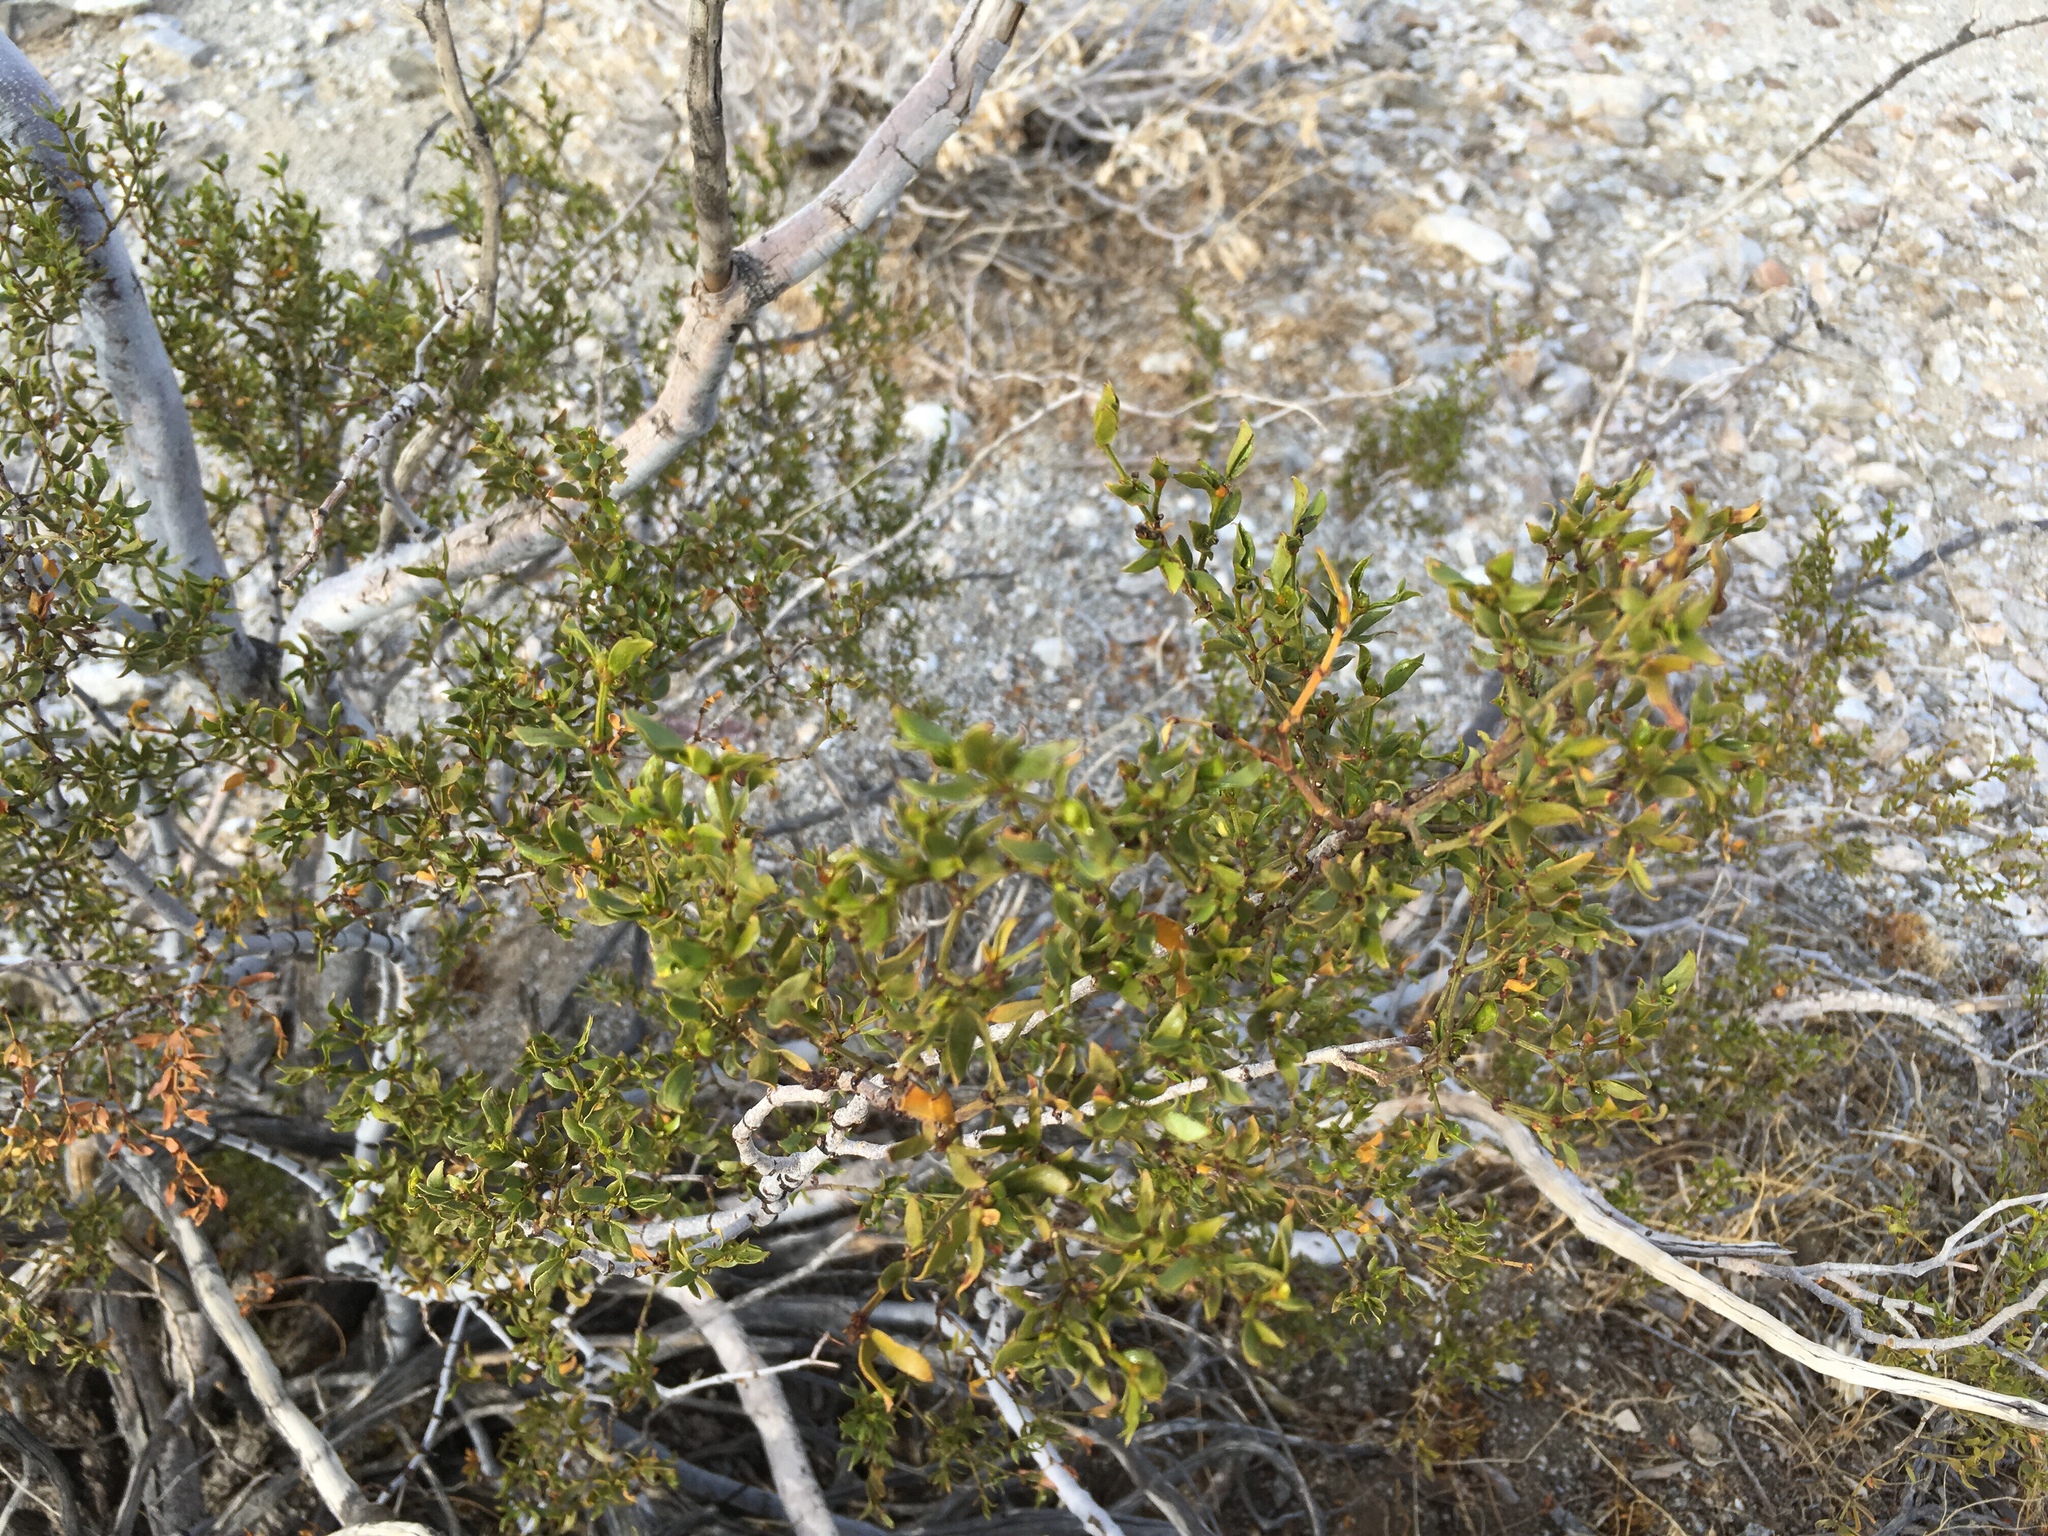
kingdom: Animalia
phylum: Arthropoda
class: Insecta
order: Diptera
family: Cecidomyiidae
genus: Asphondylia
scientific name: Asphondylia auripila
